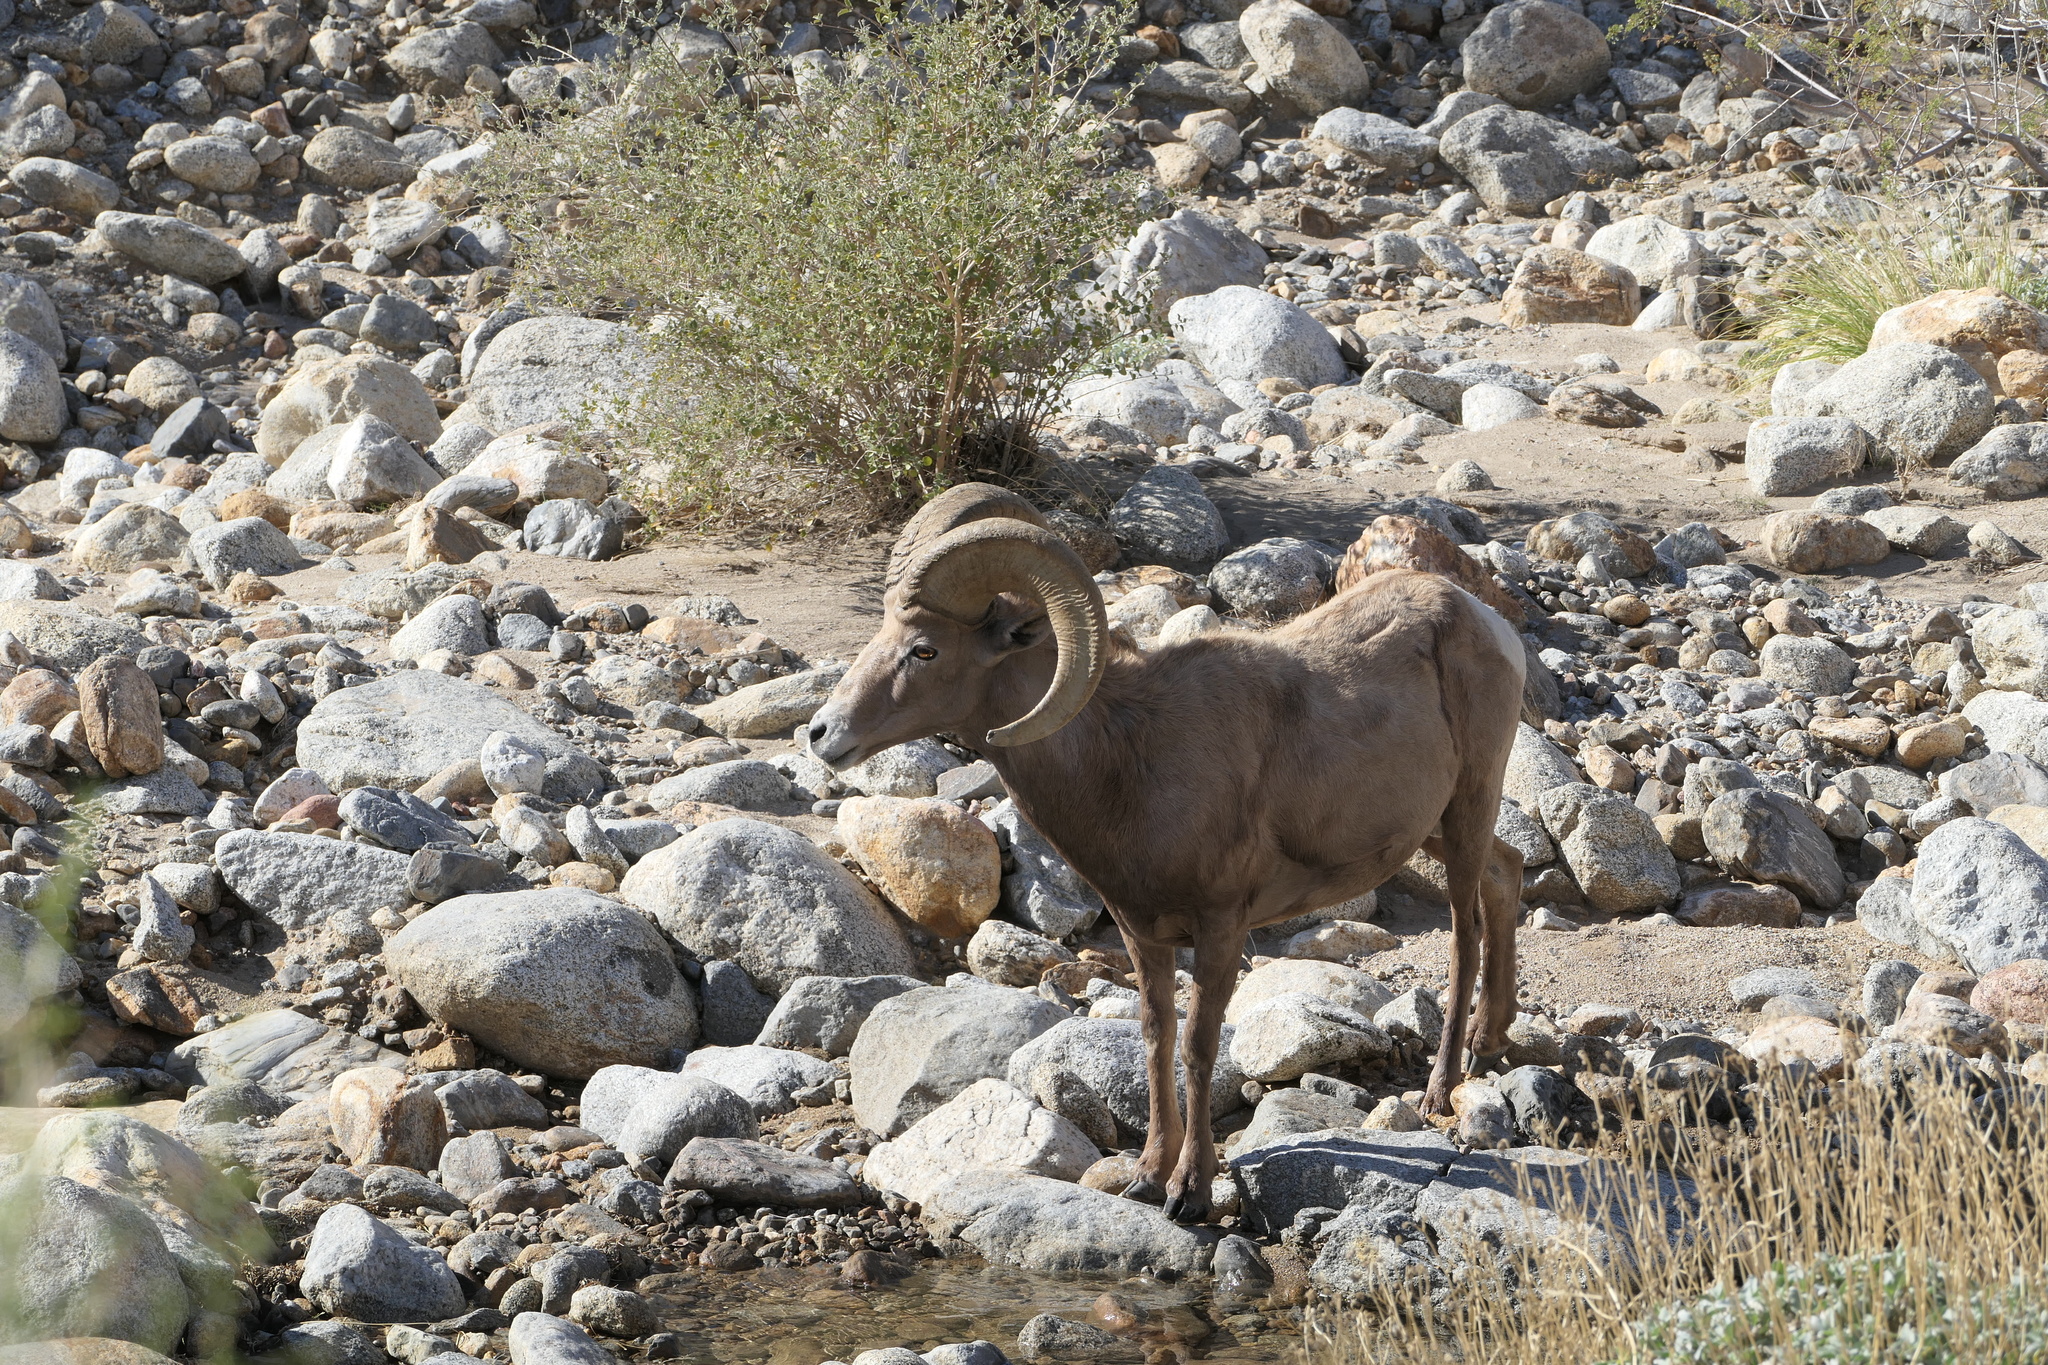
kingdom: Animalia
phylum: Chordata
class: Mammalia
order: Artiodactyla
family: Bovidae
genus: Ovis
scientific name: Ovis canadensis
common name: Bighorn sheep
